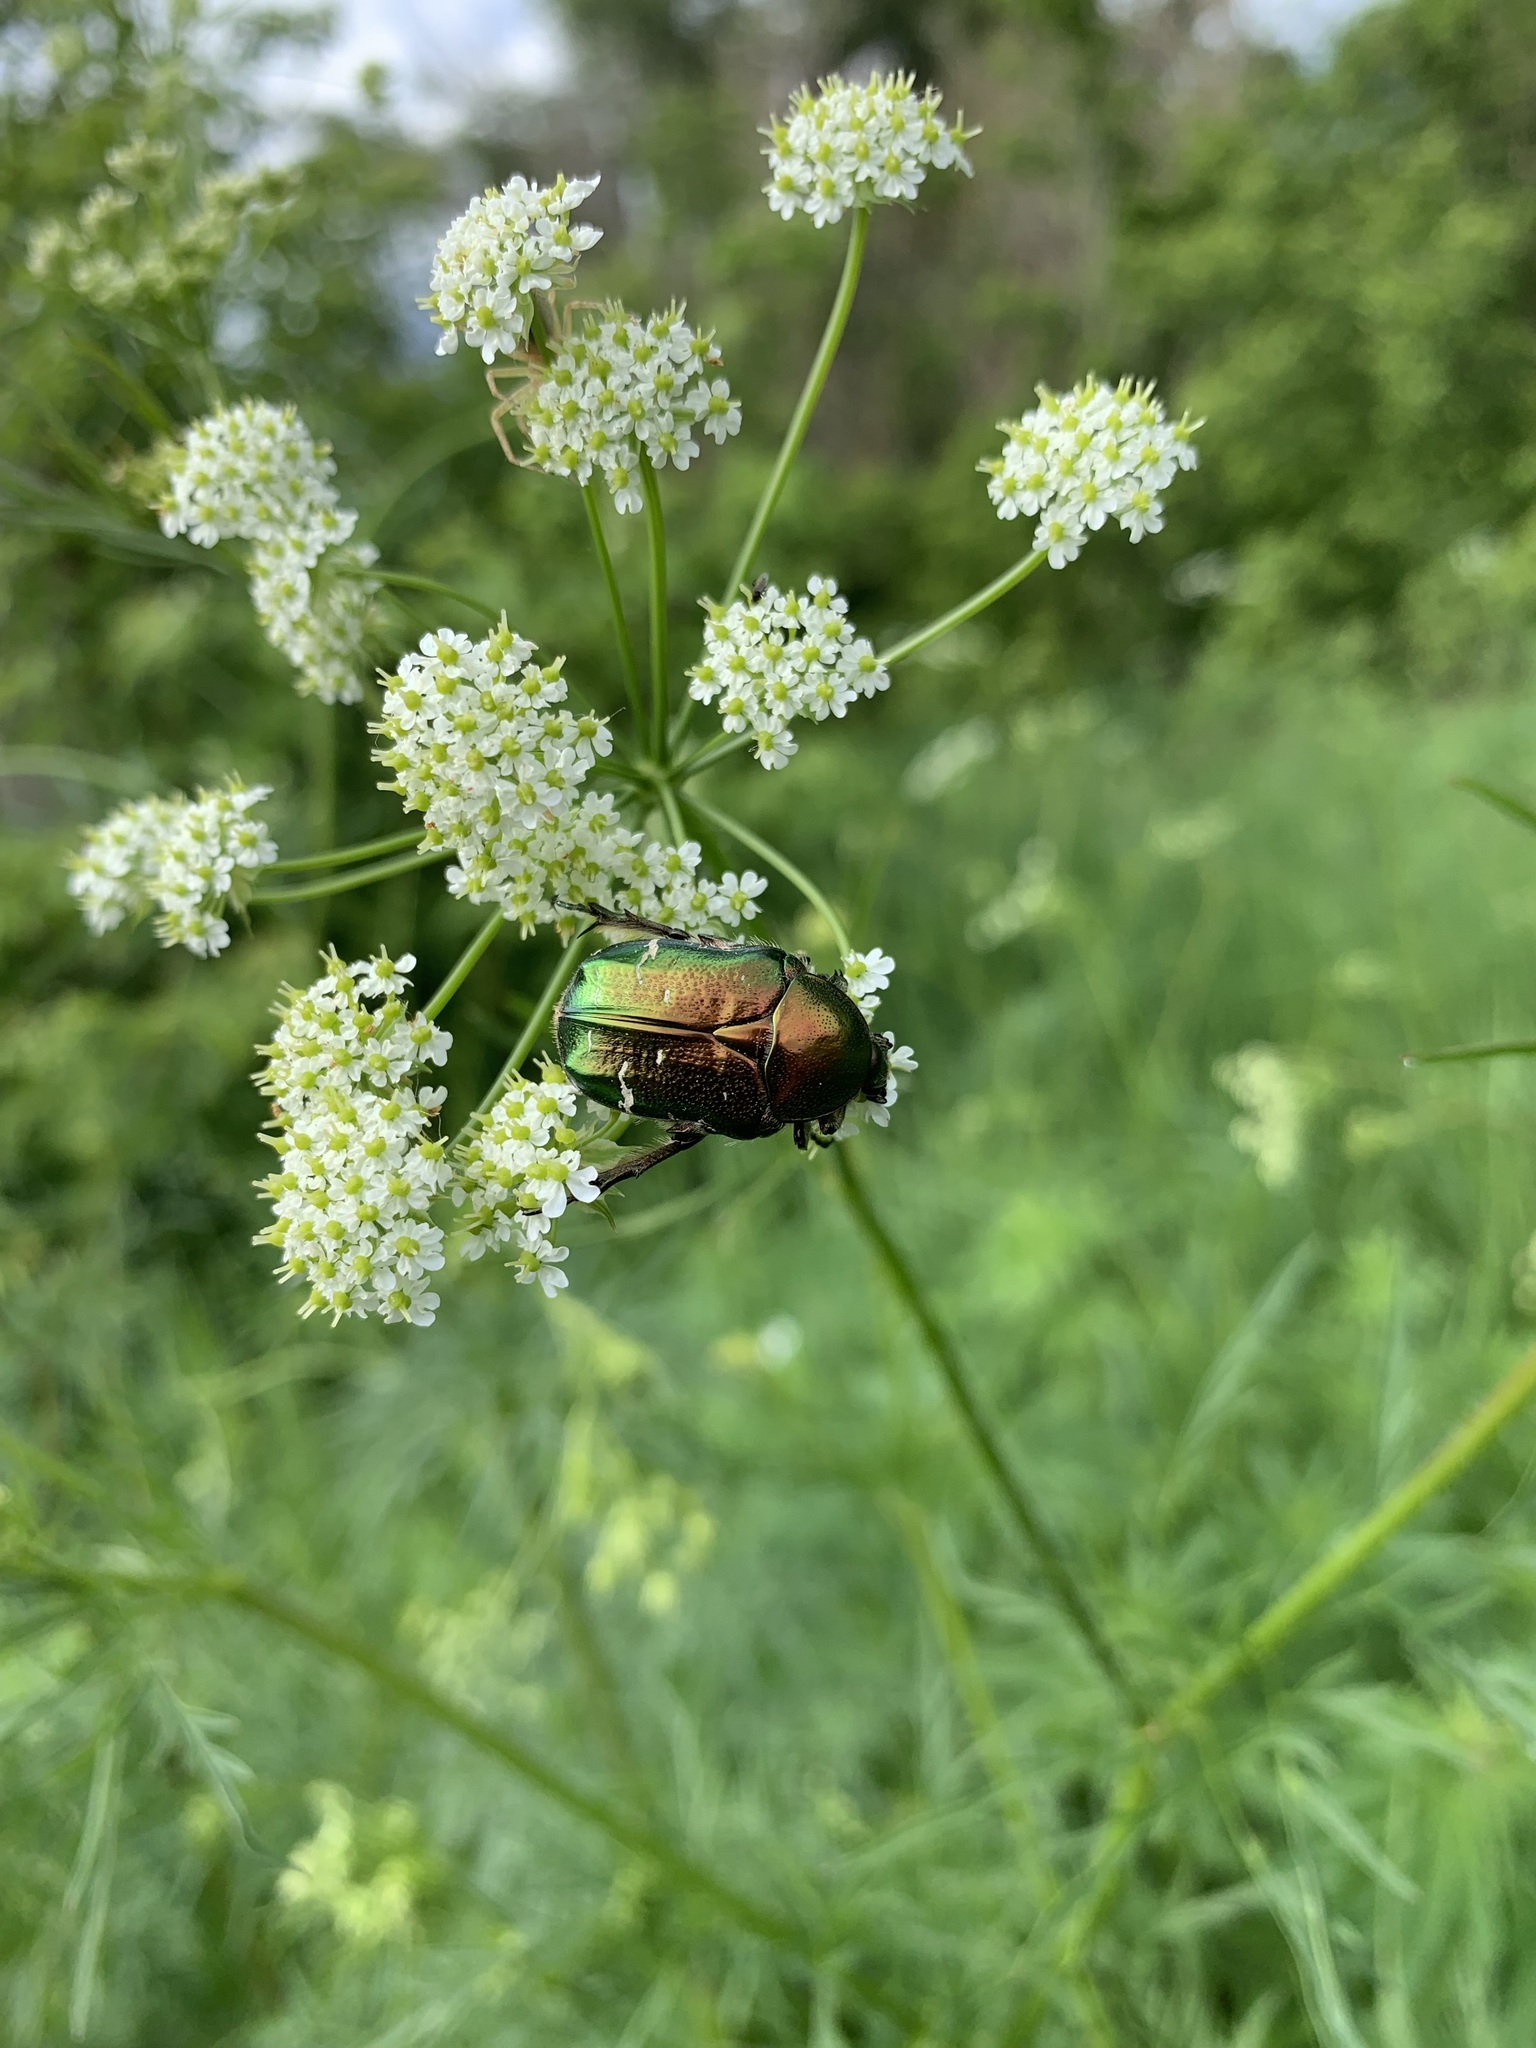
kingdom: Animalia
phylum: Arthropoda
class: Insecta
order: Coleoptera
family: Scarabaeidae
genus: Cetonia
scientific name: Cetonia aurata
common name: Rose chafer
